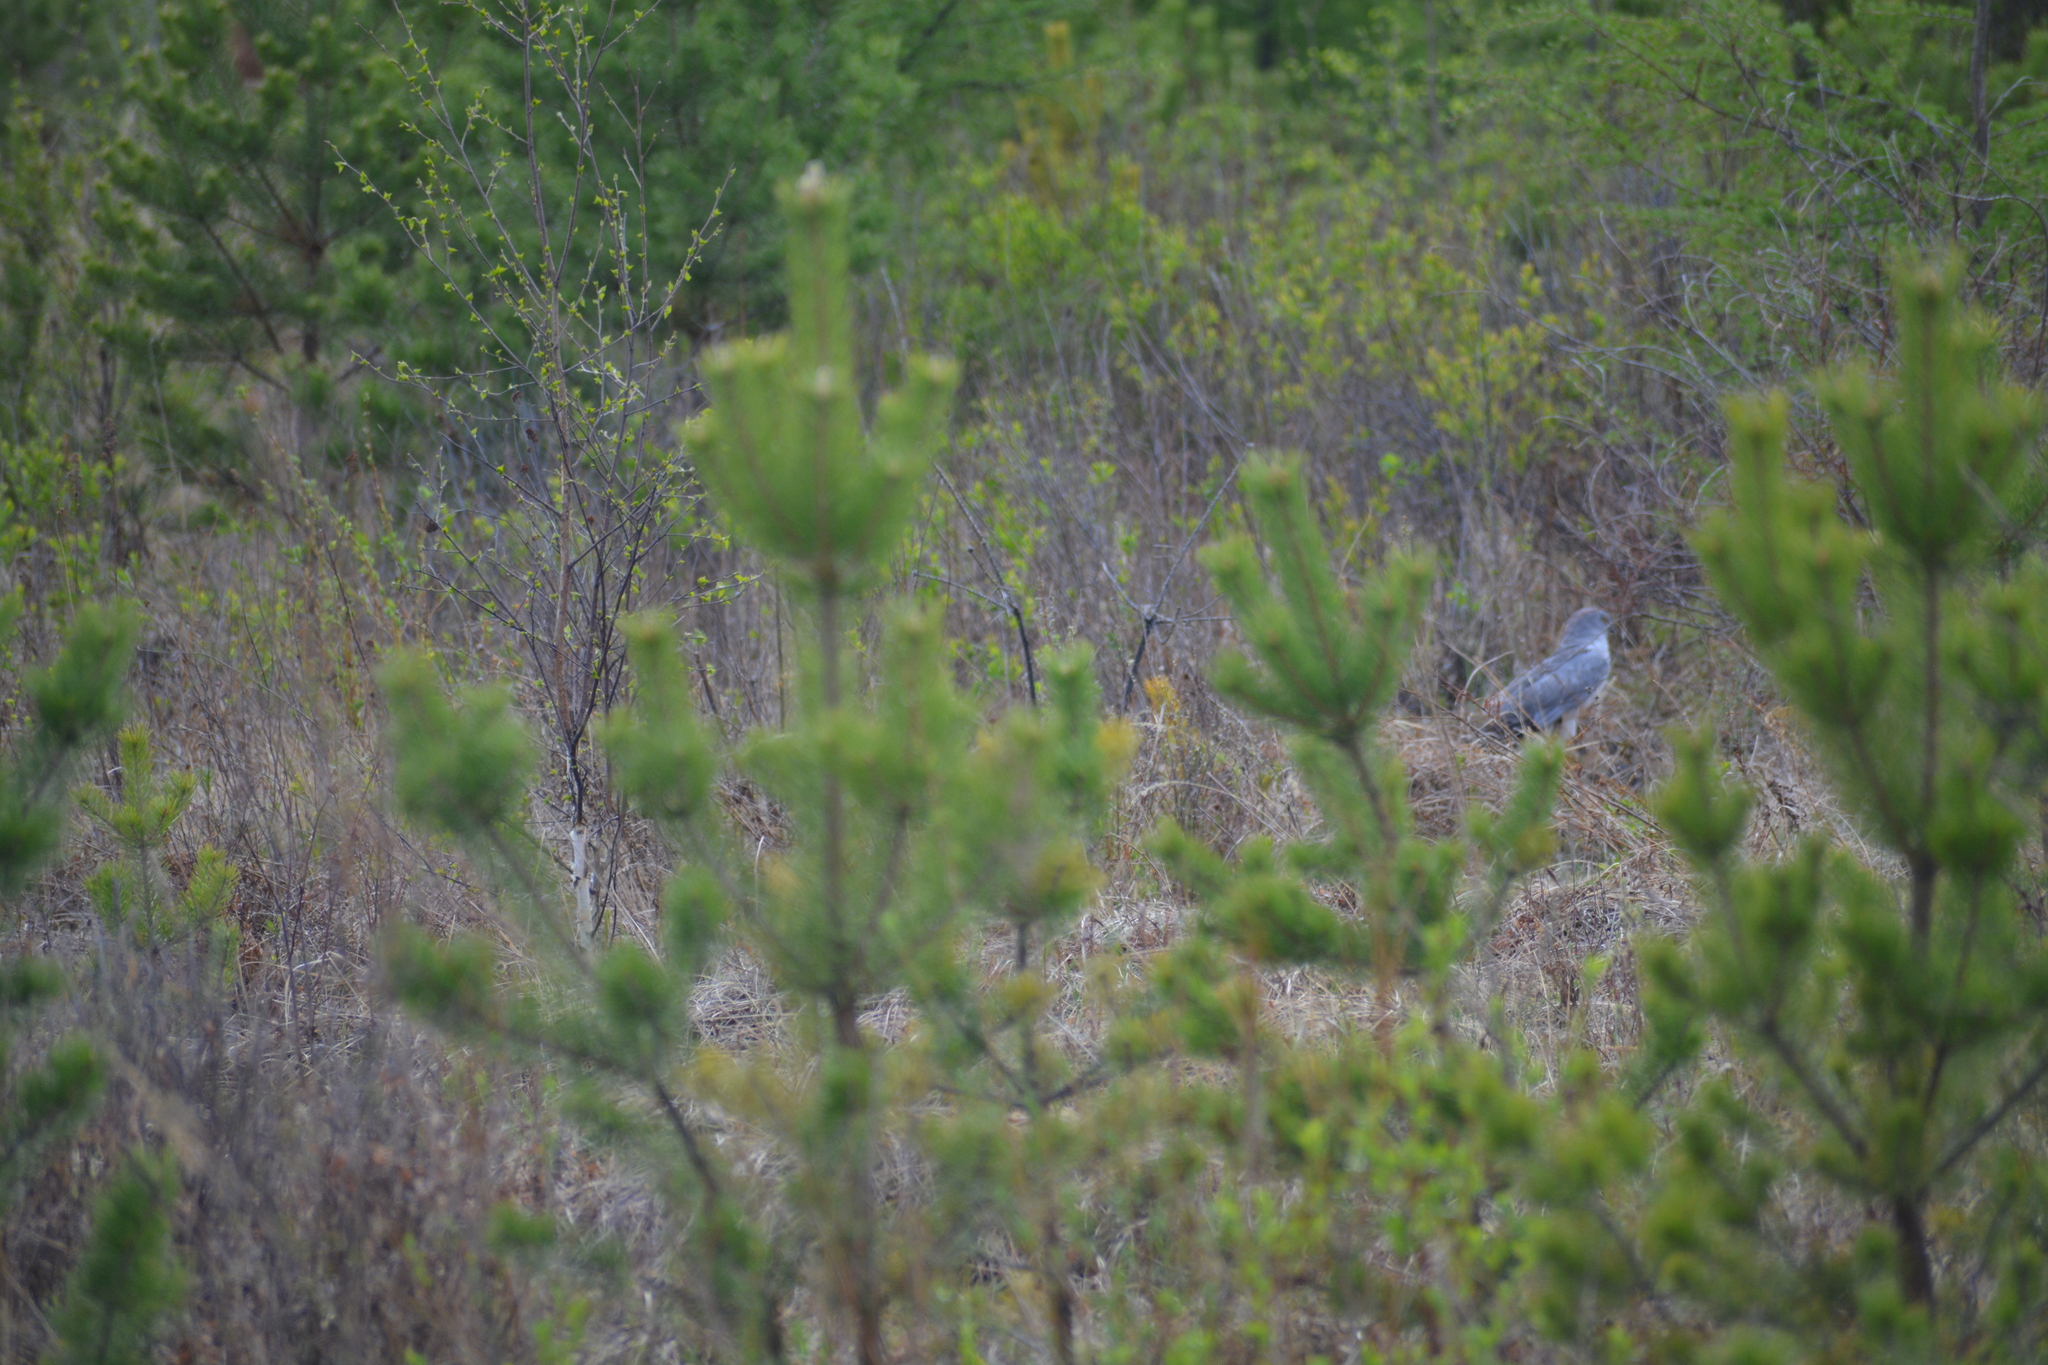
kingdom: Animalia
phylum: Chordata
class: Aves
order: Accipitriformes
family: Accipitridae
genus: Circus
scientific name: Circus cyaneus
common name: Hen harrier
